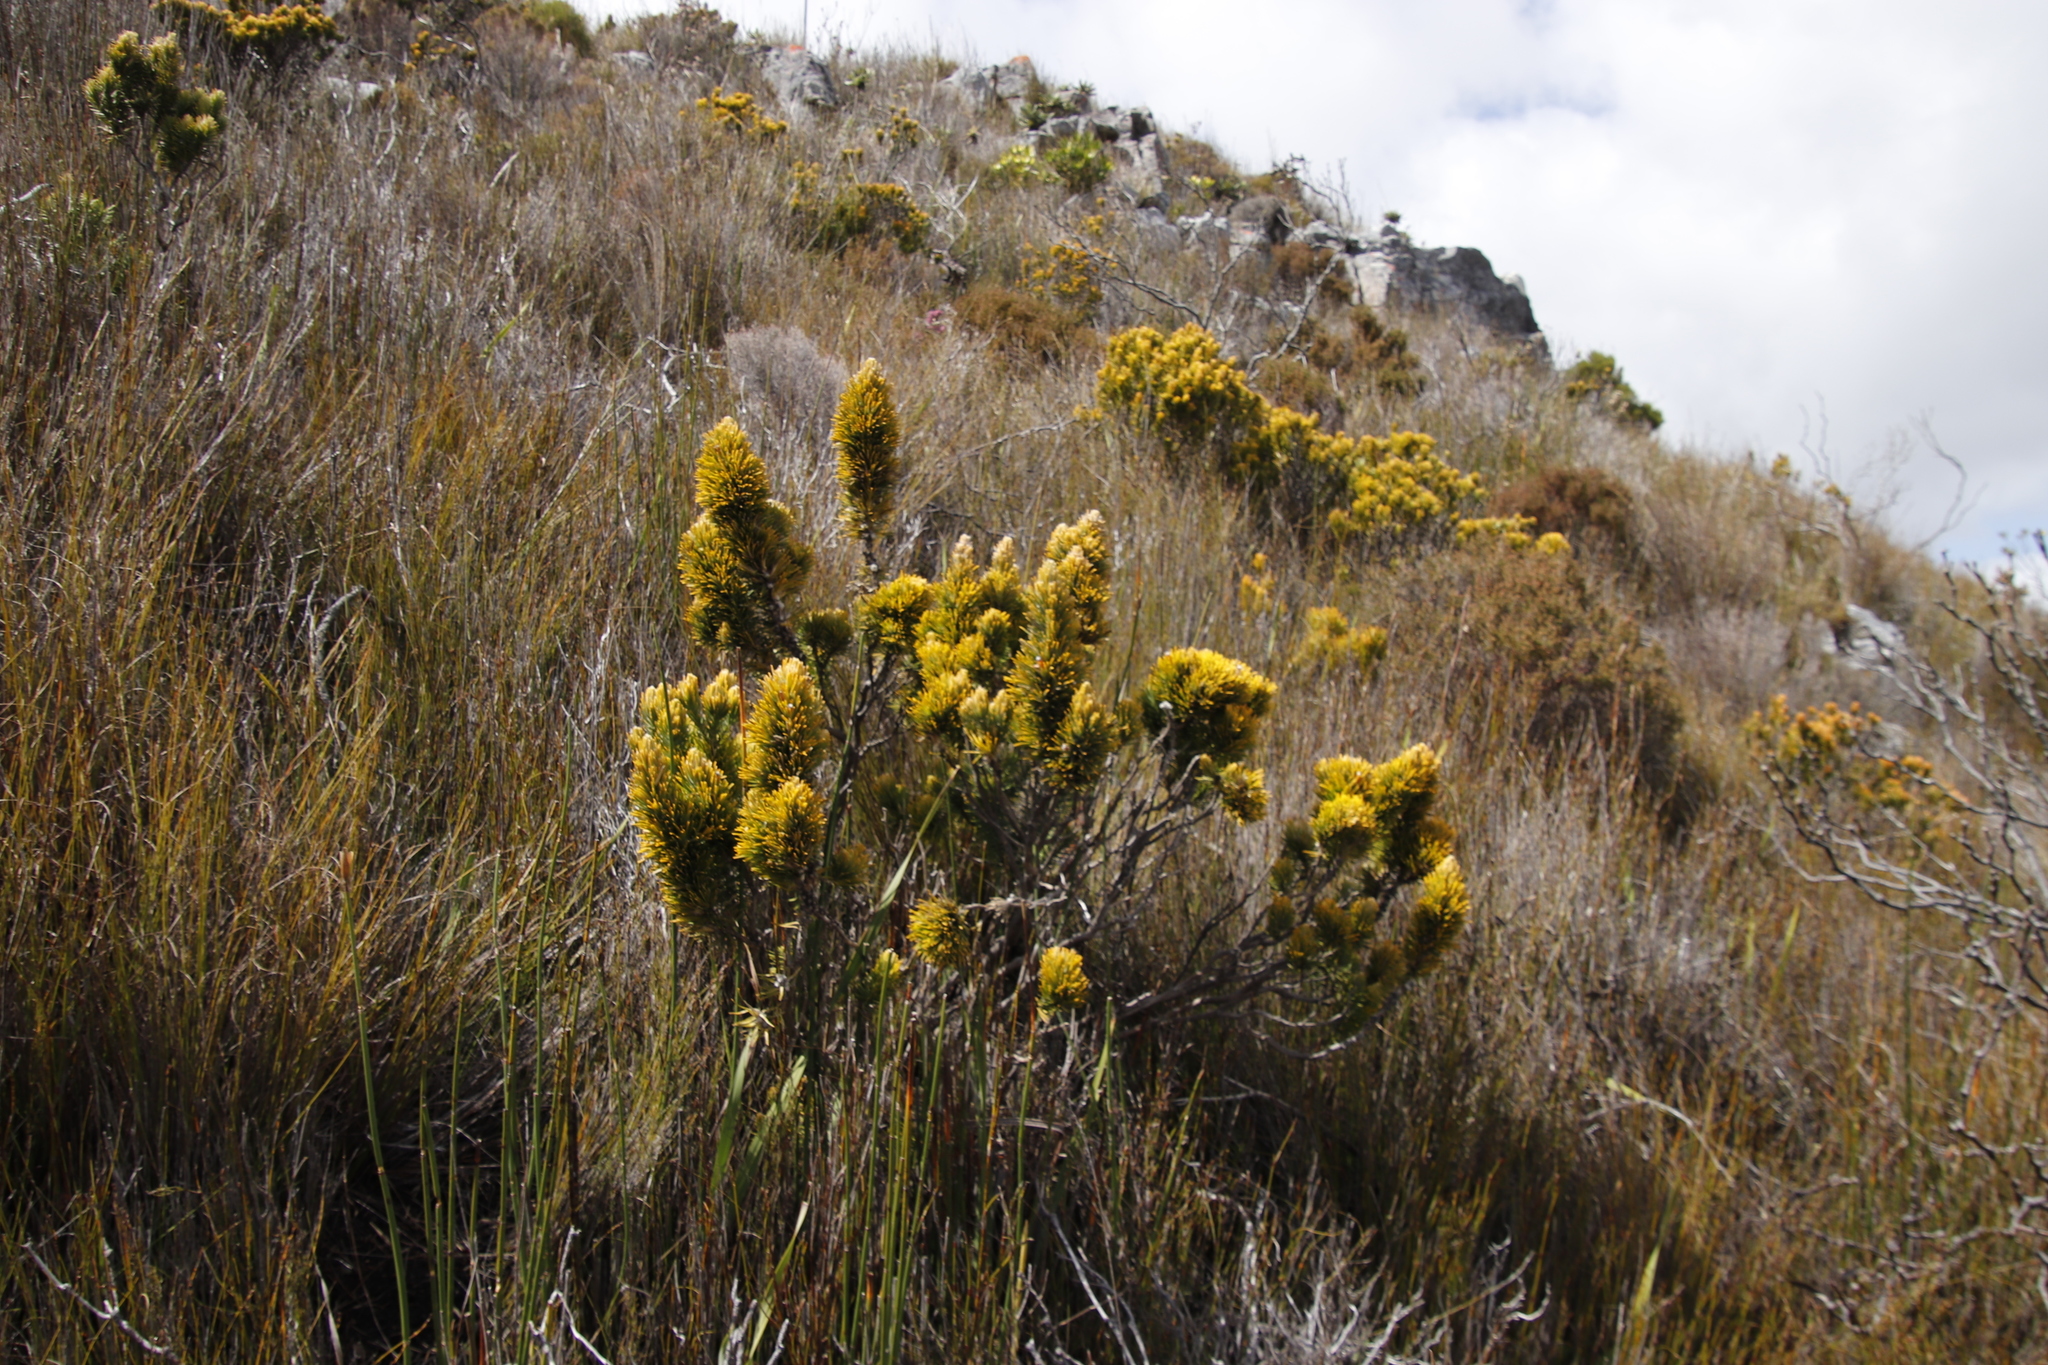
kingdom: Plantae
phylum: Tracheophyta
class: Magnoliopsida
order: Lamiales
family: Stilbaceae
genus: Retzia
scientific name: Retzia capensis
